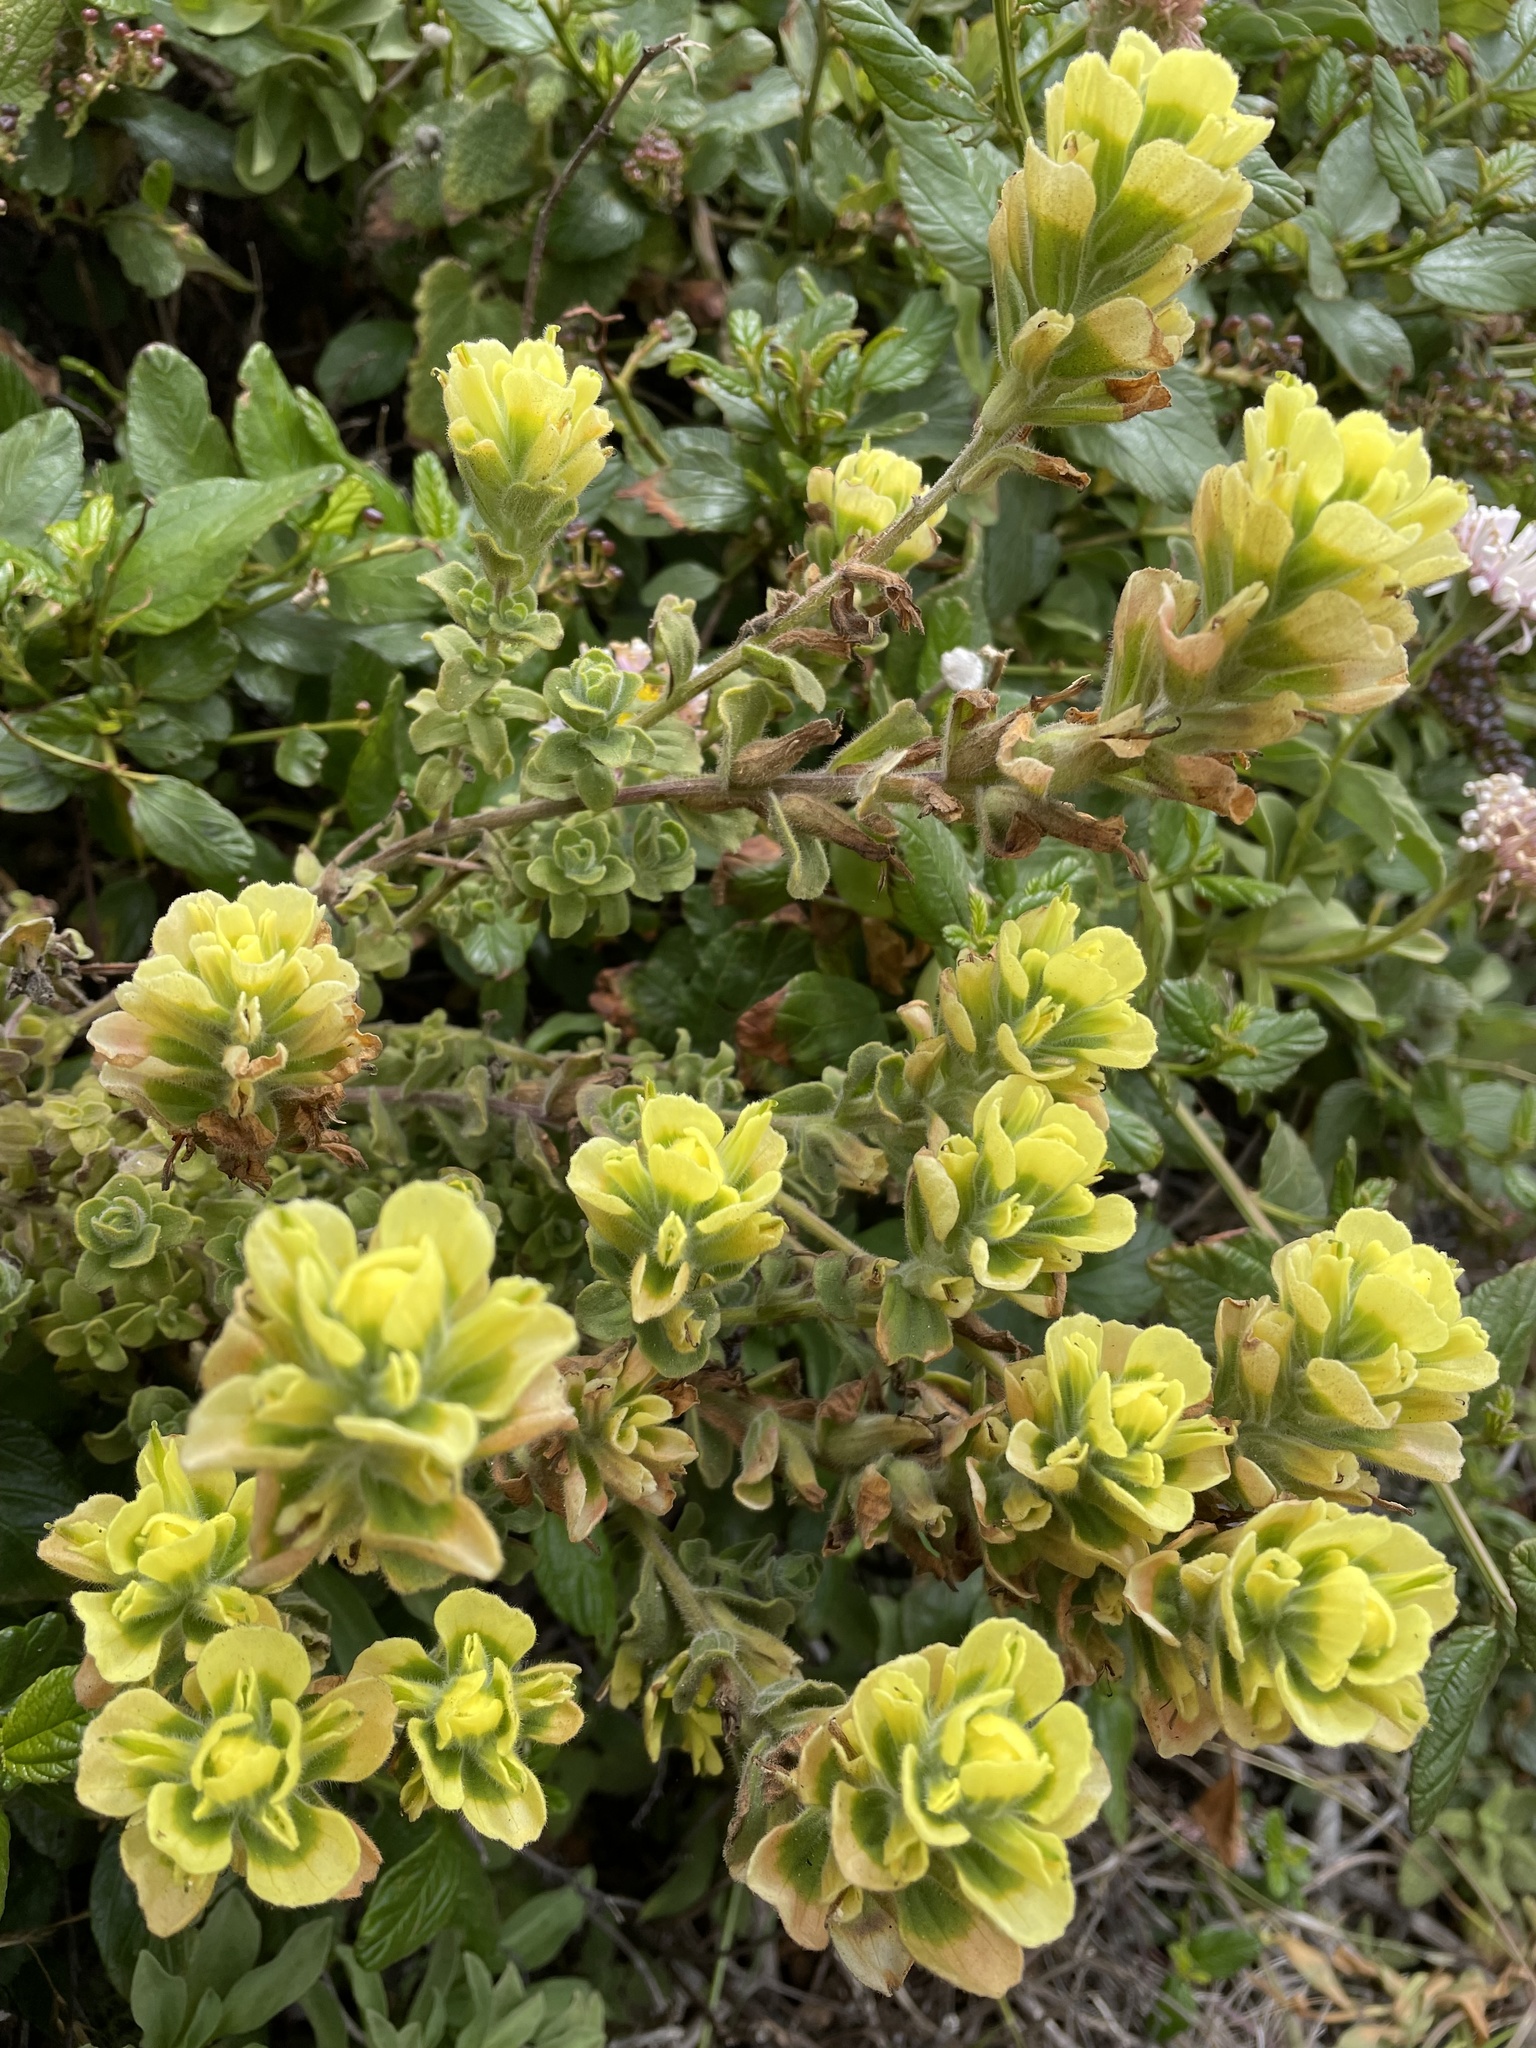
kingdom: Plantae
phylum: Tracheophyta
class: Magnoliopsida
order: Lamiales
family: Orobanchaceae
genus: Castilleja
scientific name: Castilleja latifolia
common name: Monterey indian paintbrush
